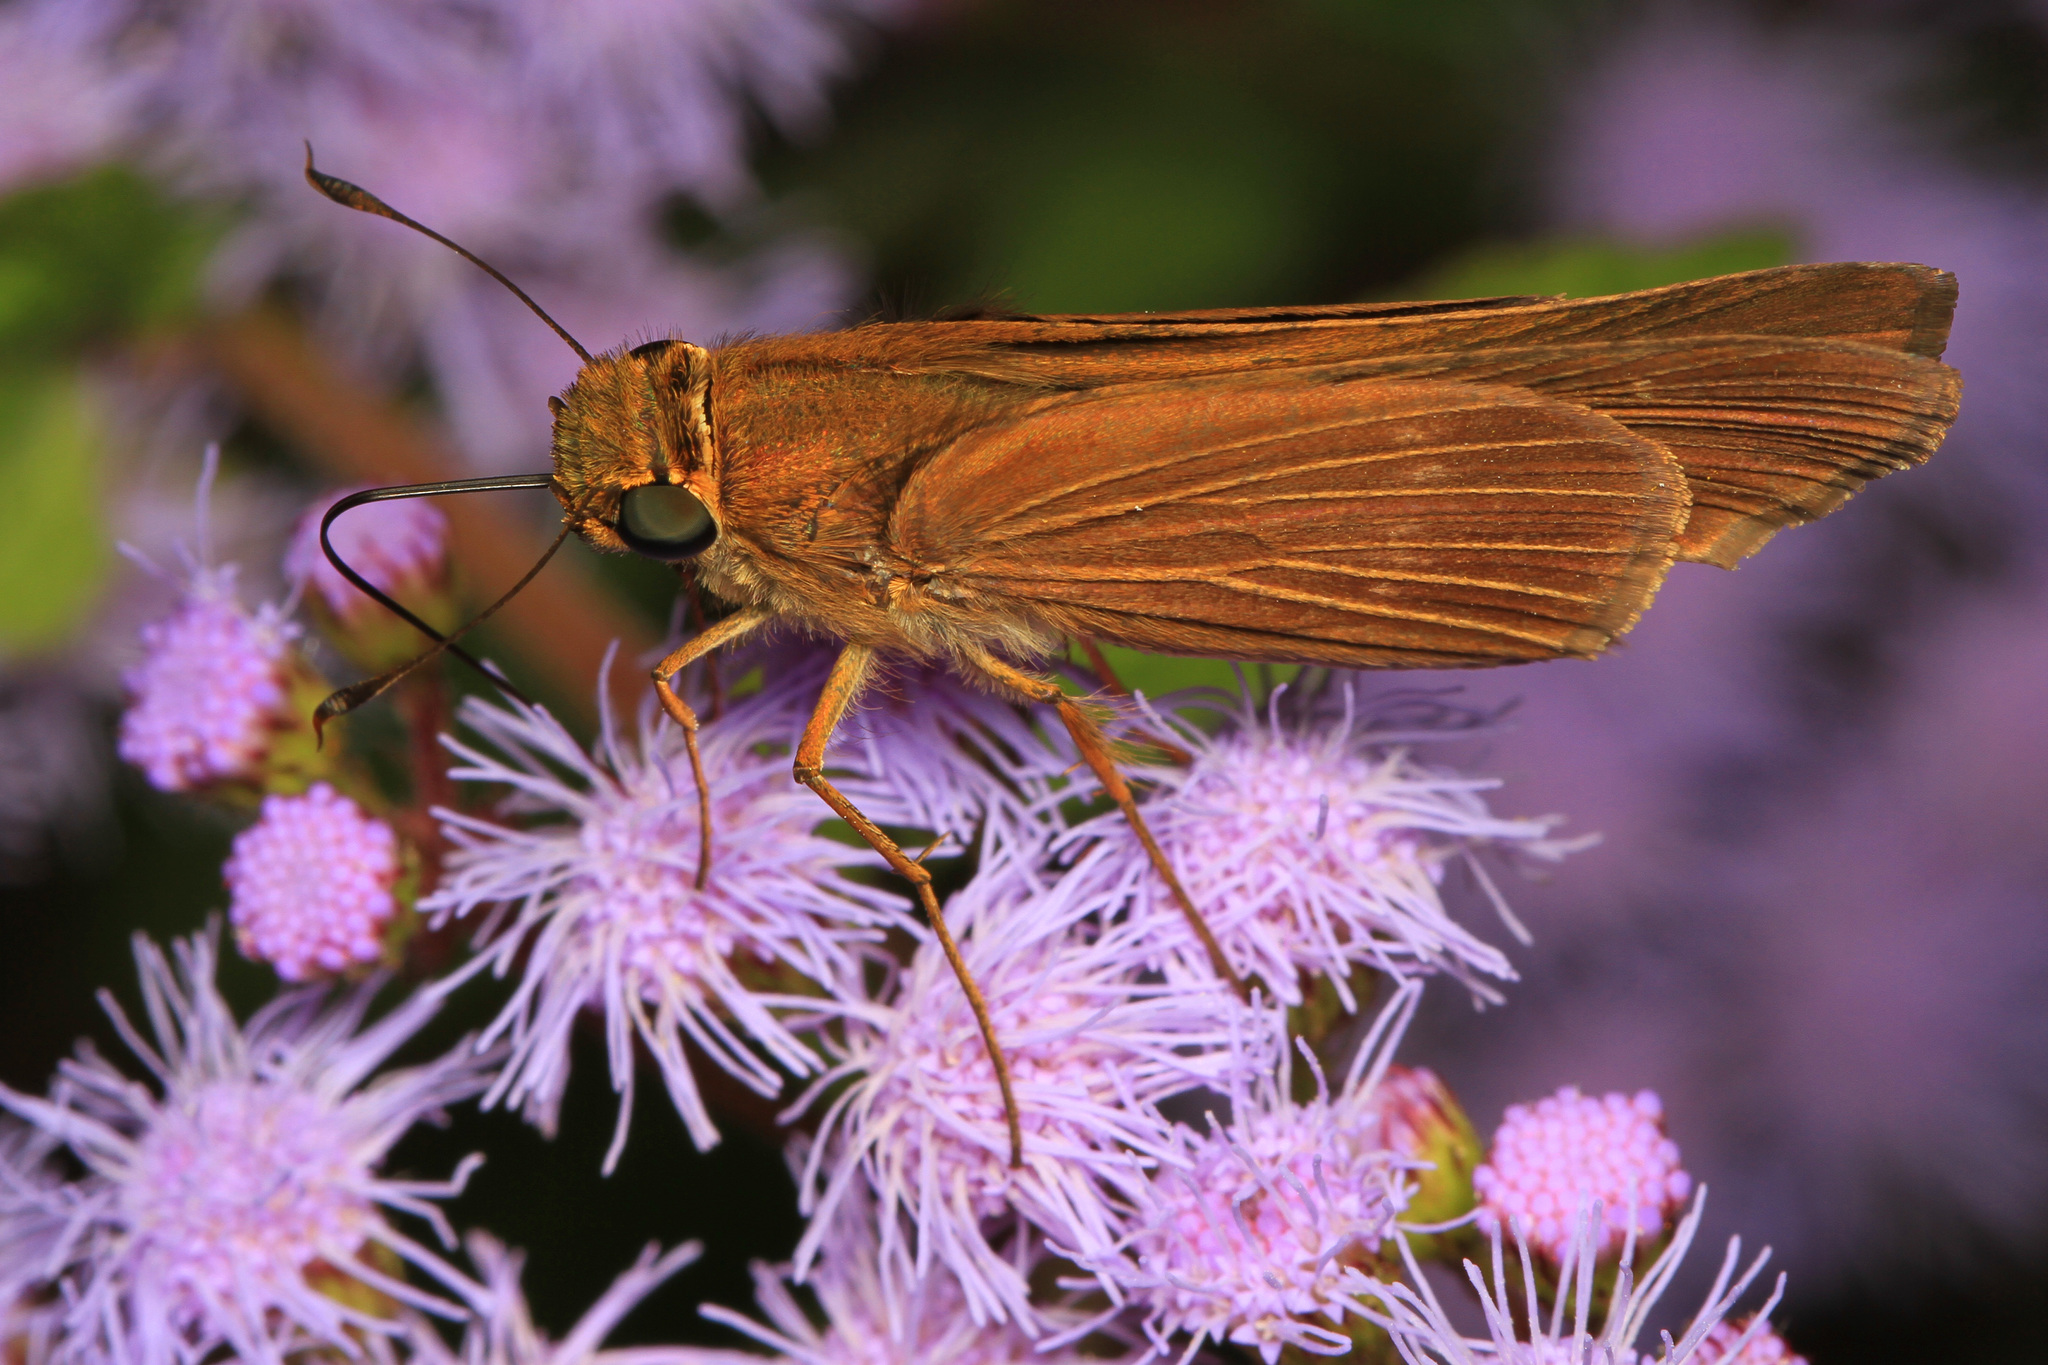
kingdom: Animalia
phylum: Arthropoda
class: Insecta
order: Lepidoptera
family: Hesperiidae
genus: Panoquina
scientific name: Panoquina ocola
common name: Ocola skipper
